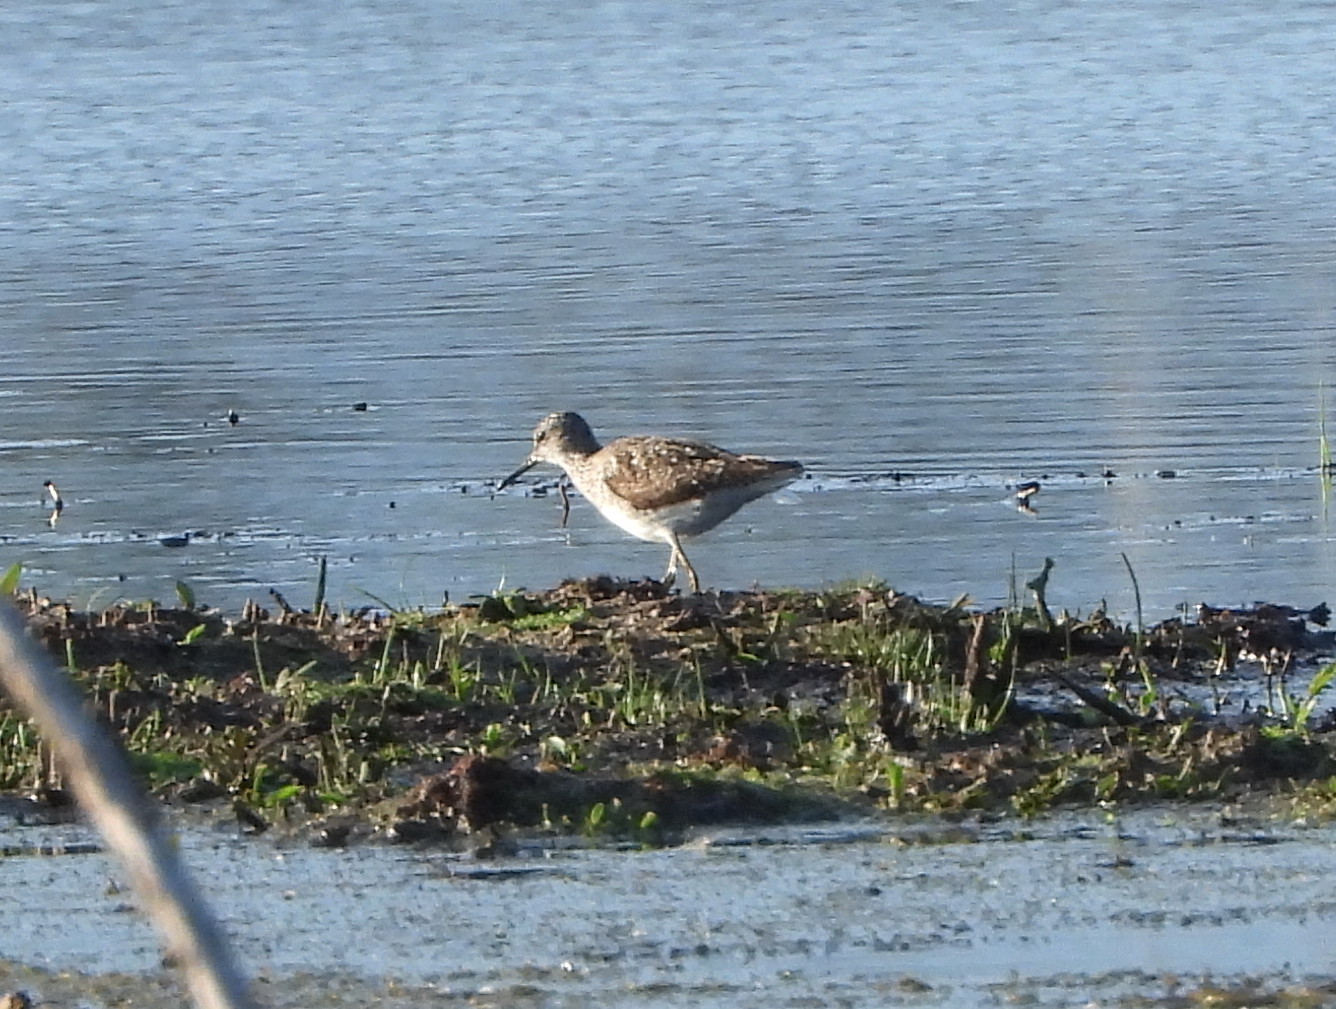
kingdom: Animalia
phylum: Chordata
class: Aves
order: Charadriiformes
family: Scolopacidae
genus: Tringa
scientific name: Tringa glareola
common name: Wood sandpiper
